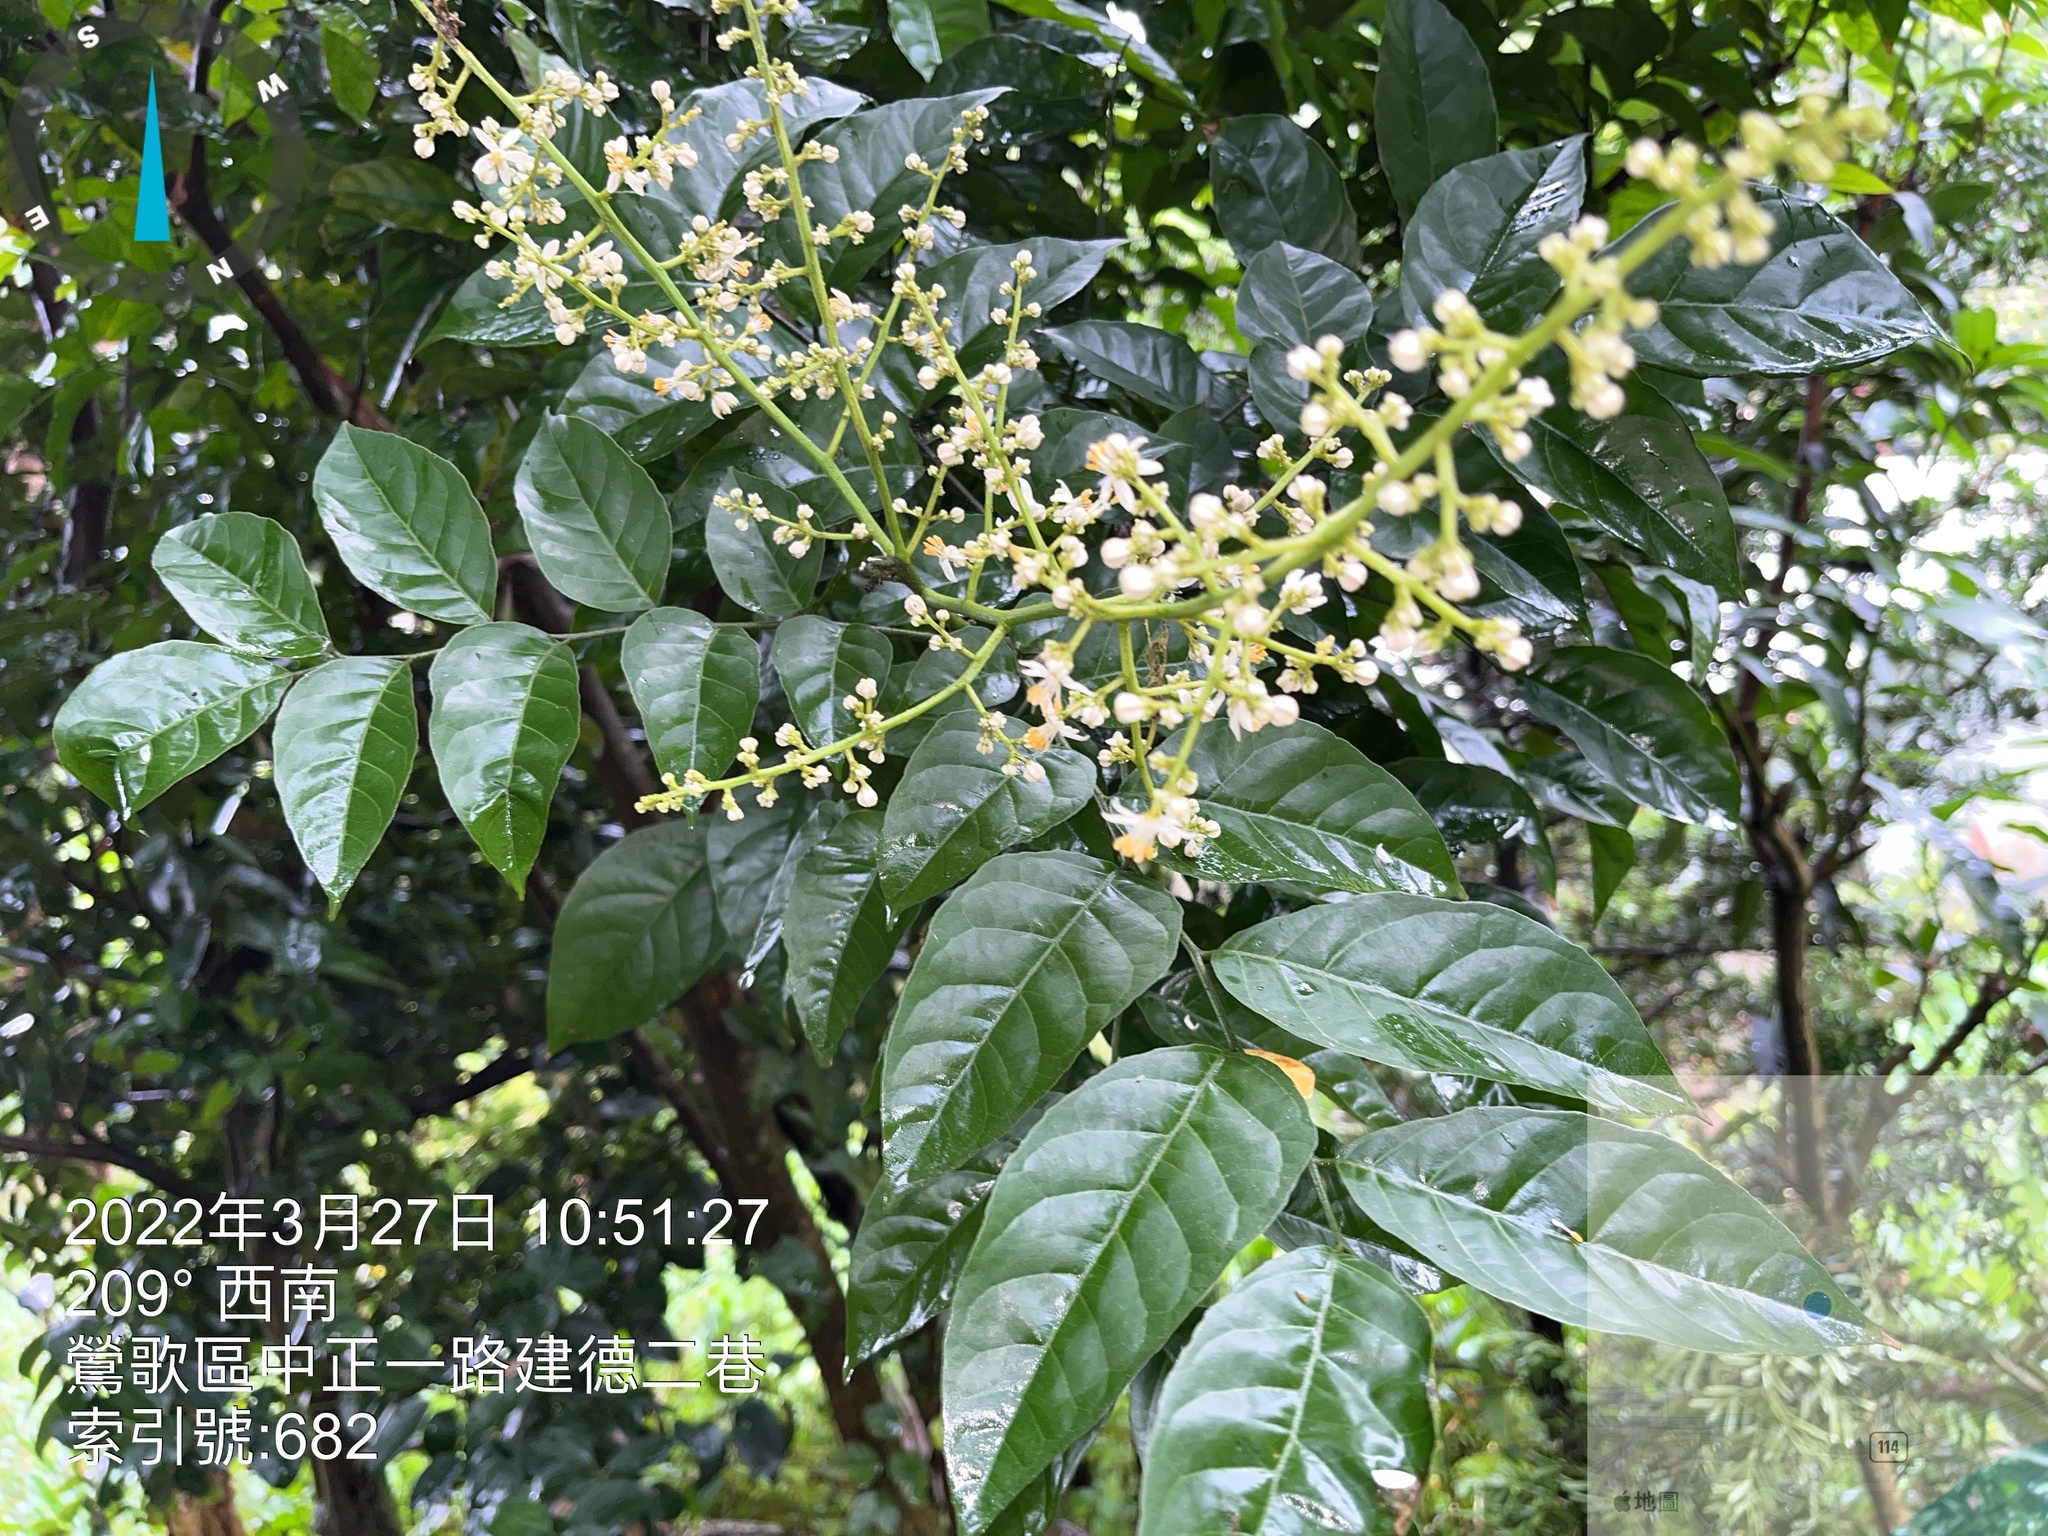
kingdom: Plantae
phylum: Tracheophyta
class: Magnoliopsida
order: Sapindales
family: Rutaceae
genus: Clausena
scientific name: Clausena lansium
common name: Wampi
